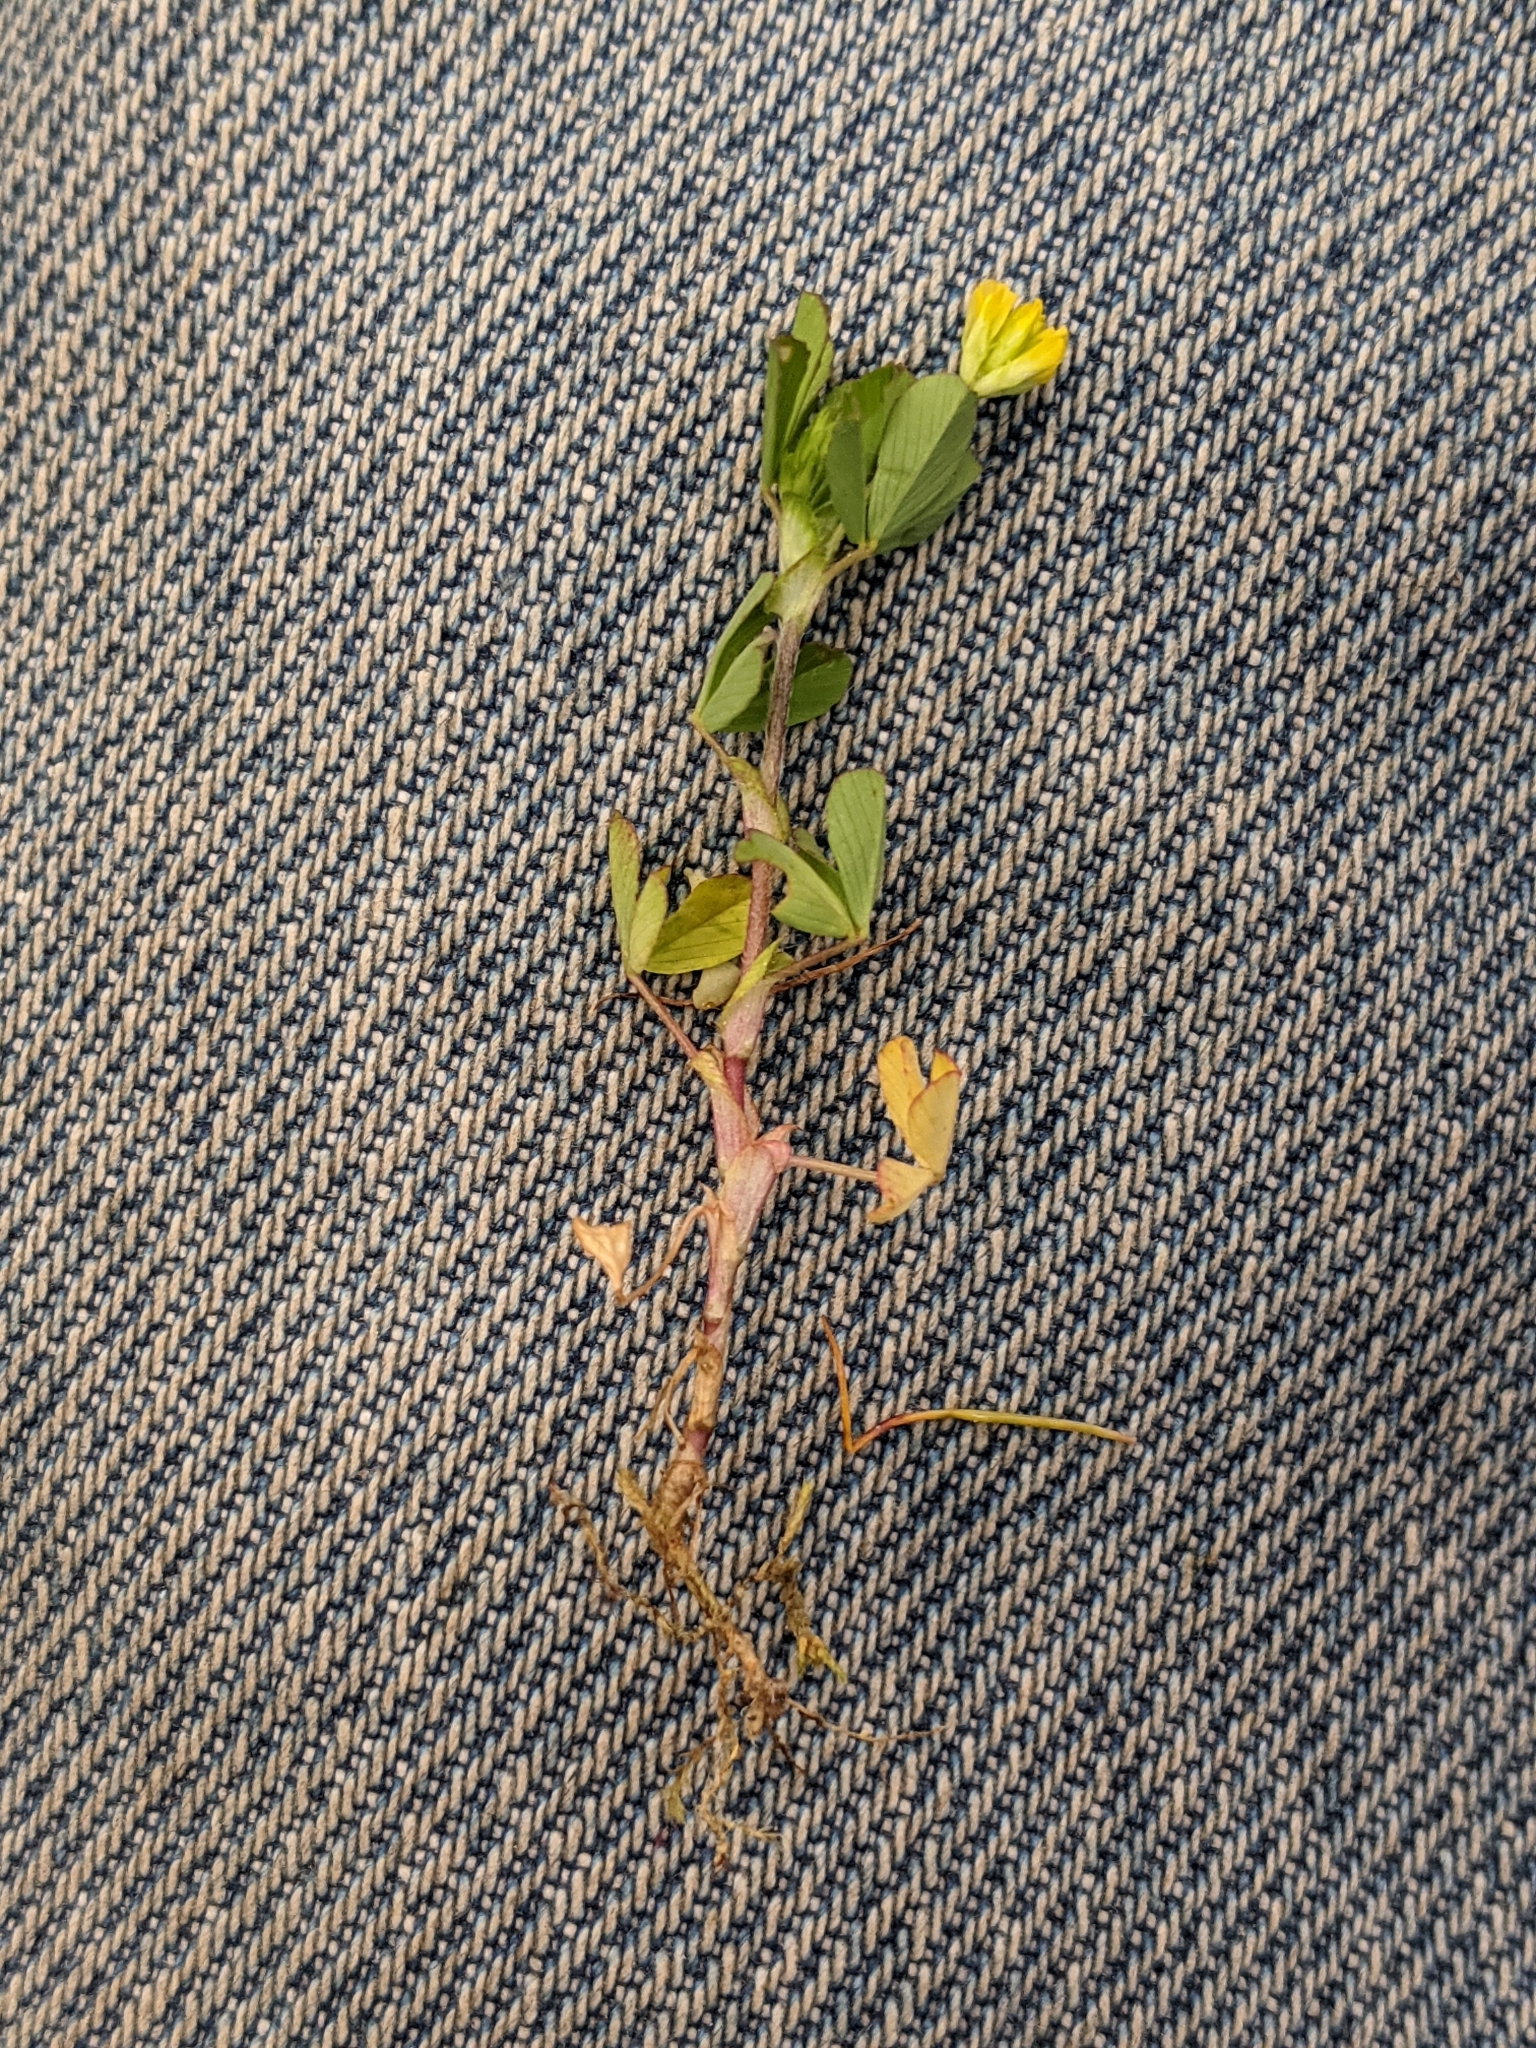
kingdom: Plantae
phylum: Tracheophyta
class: Magnoliopsida
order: Fabales
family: Fabaceae
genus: Trifolium
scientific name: Trifolium dubium
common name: Suckling clover
